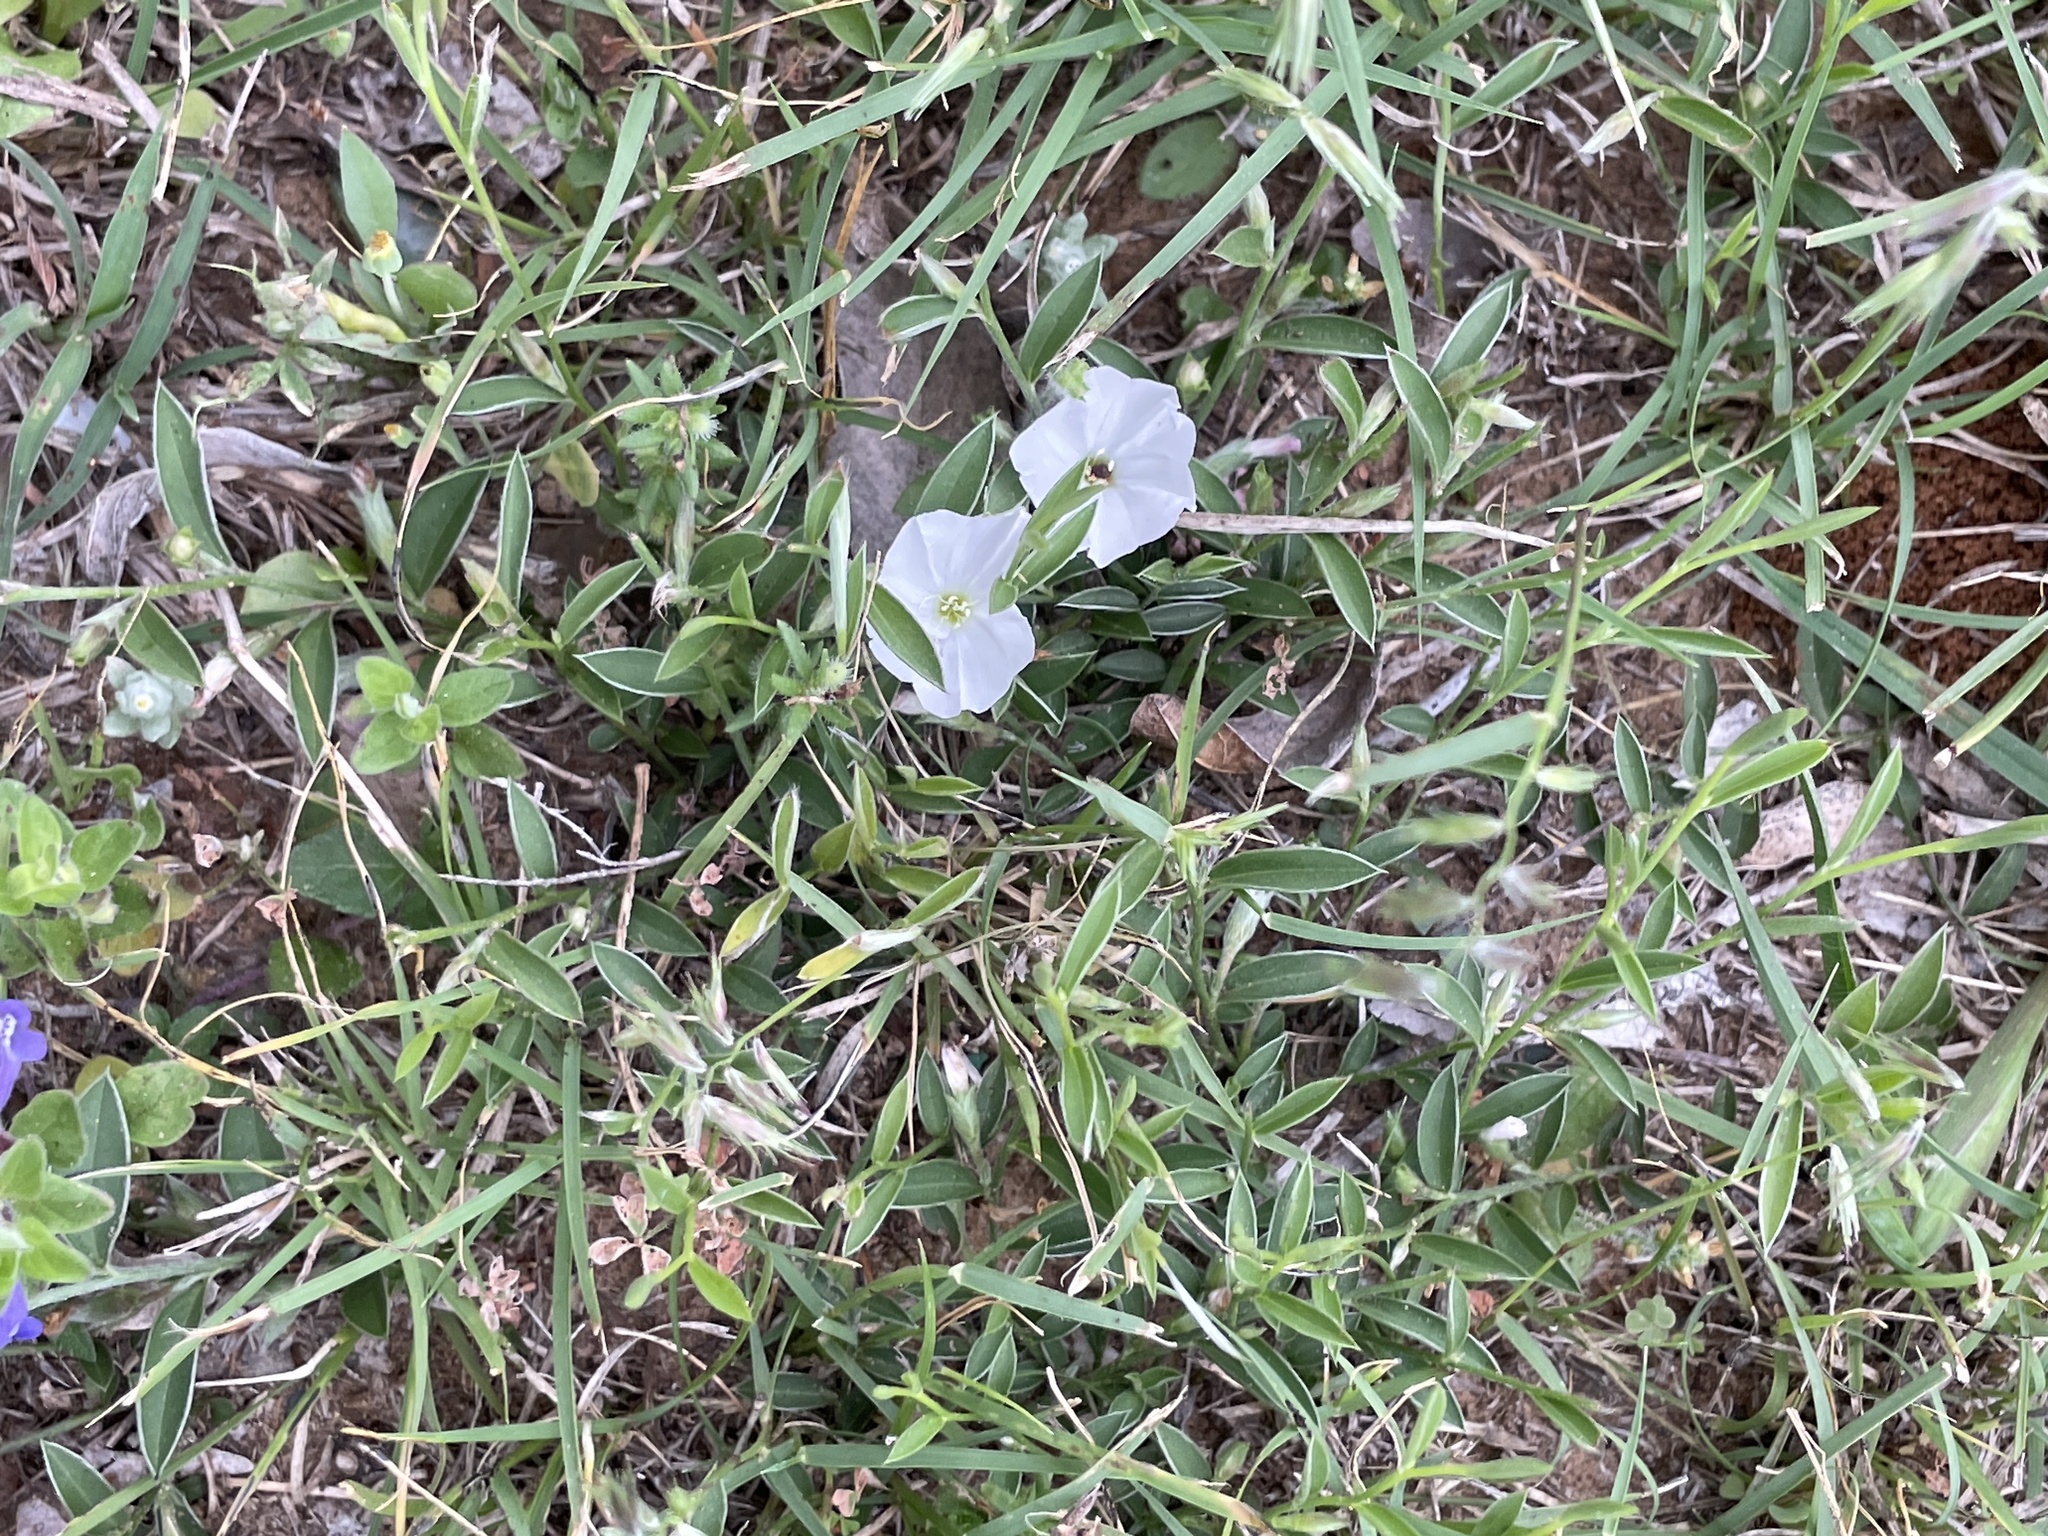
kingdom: Plantae
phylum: Tracheophyta
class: Magnoliopsida
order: Solanales
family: Convolvulaceae
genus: Evolvulus
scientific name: Evolvulus sericeus
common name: Blue dots
